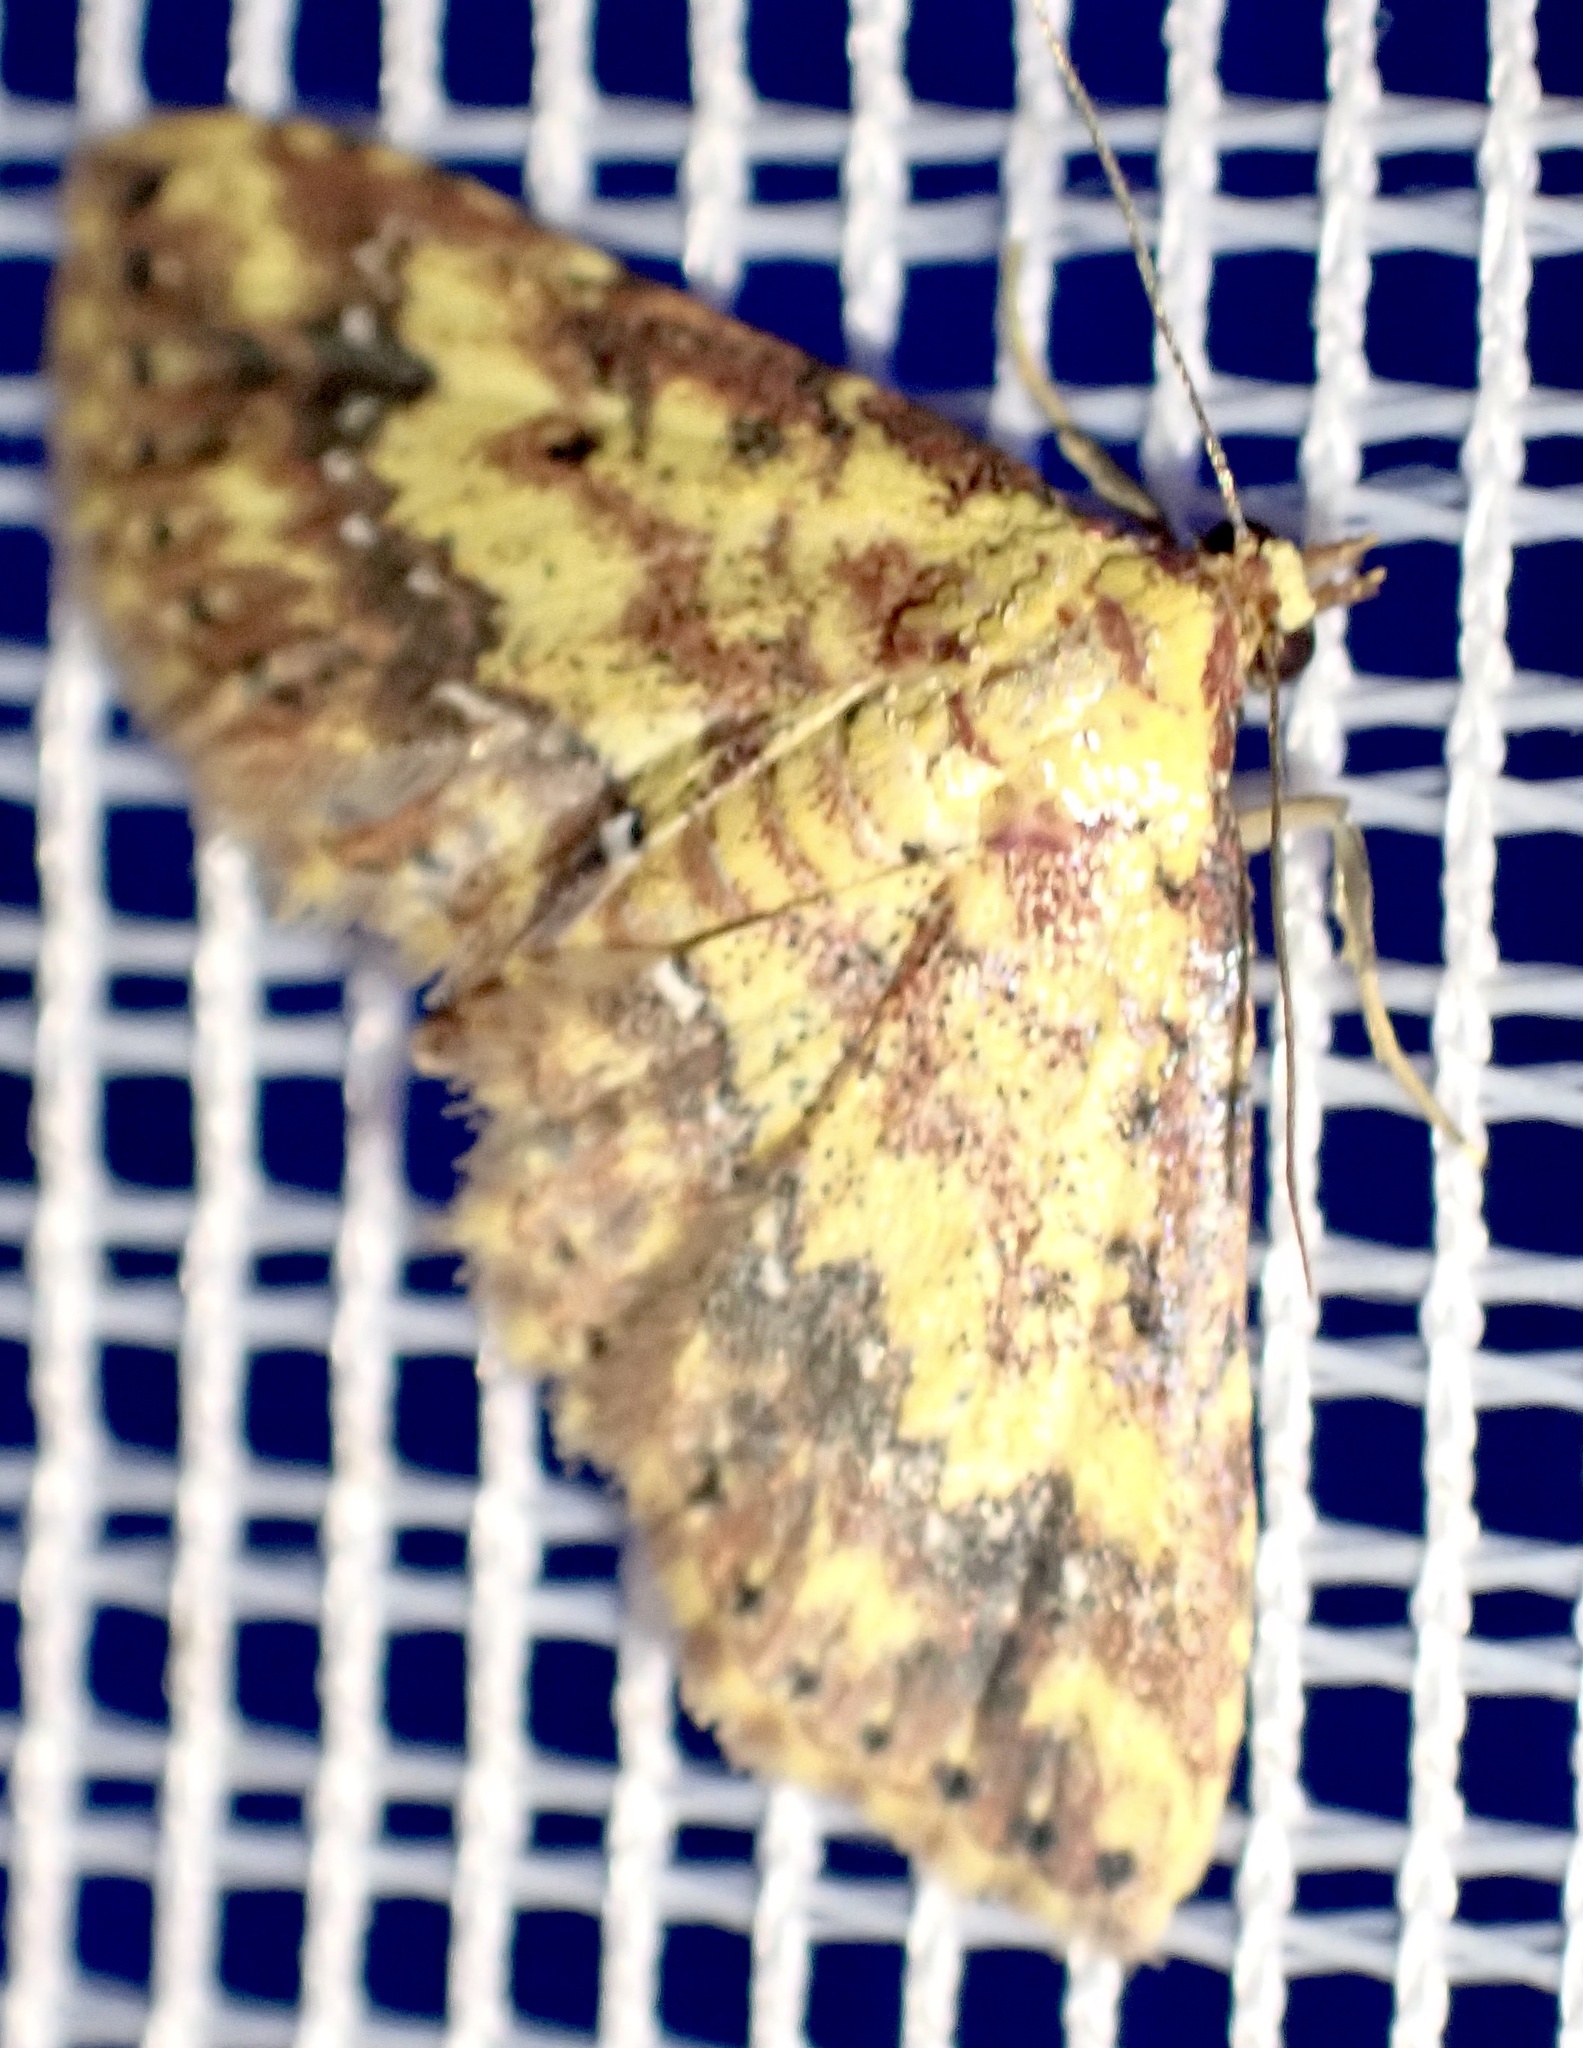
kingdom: Animalia
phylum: Arthropoda
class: Insecta
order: Lepidoptera
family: Noctuidae
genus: Cerynea
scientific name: Cerynea thermesialis
